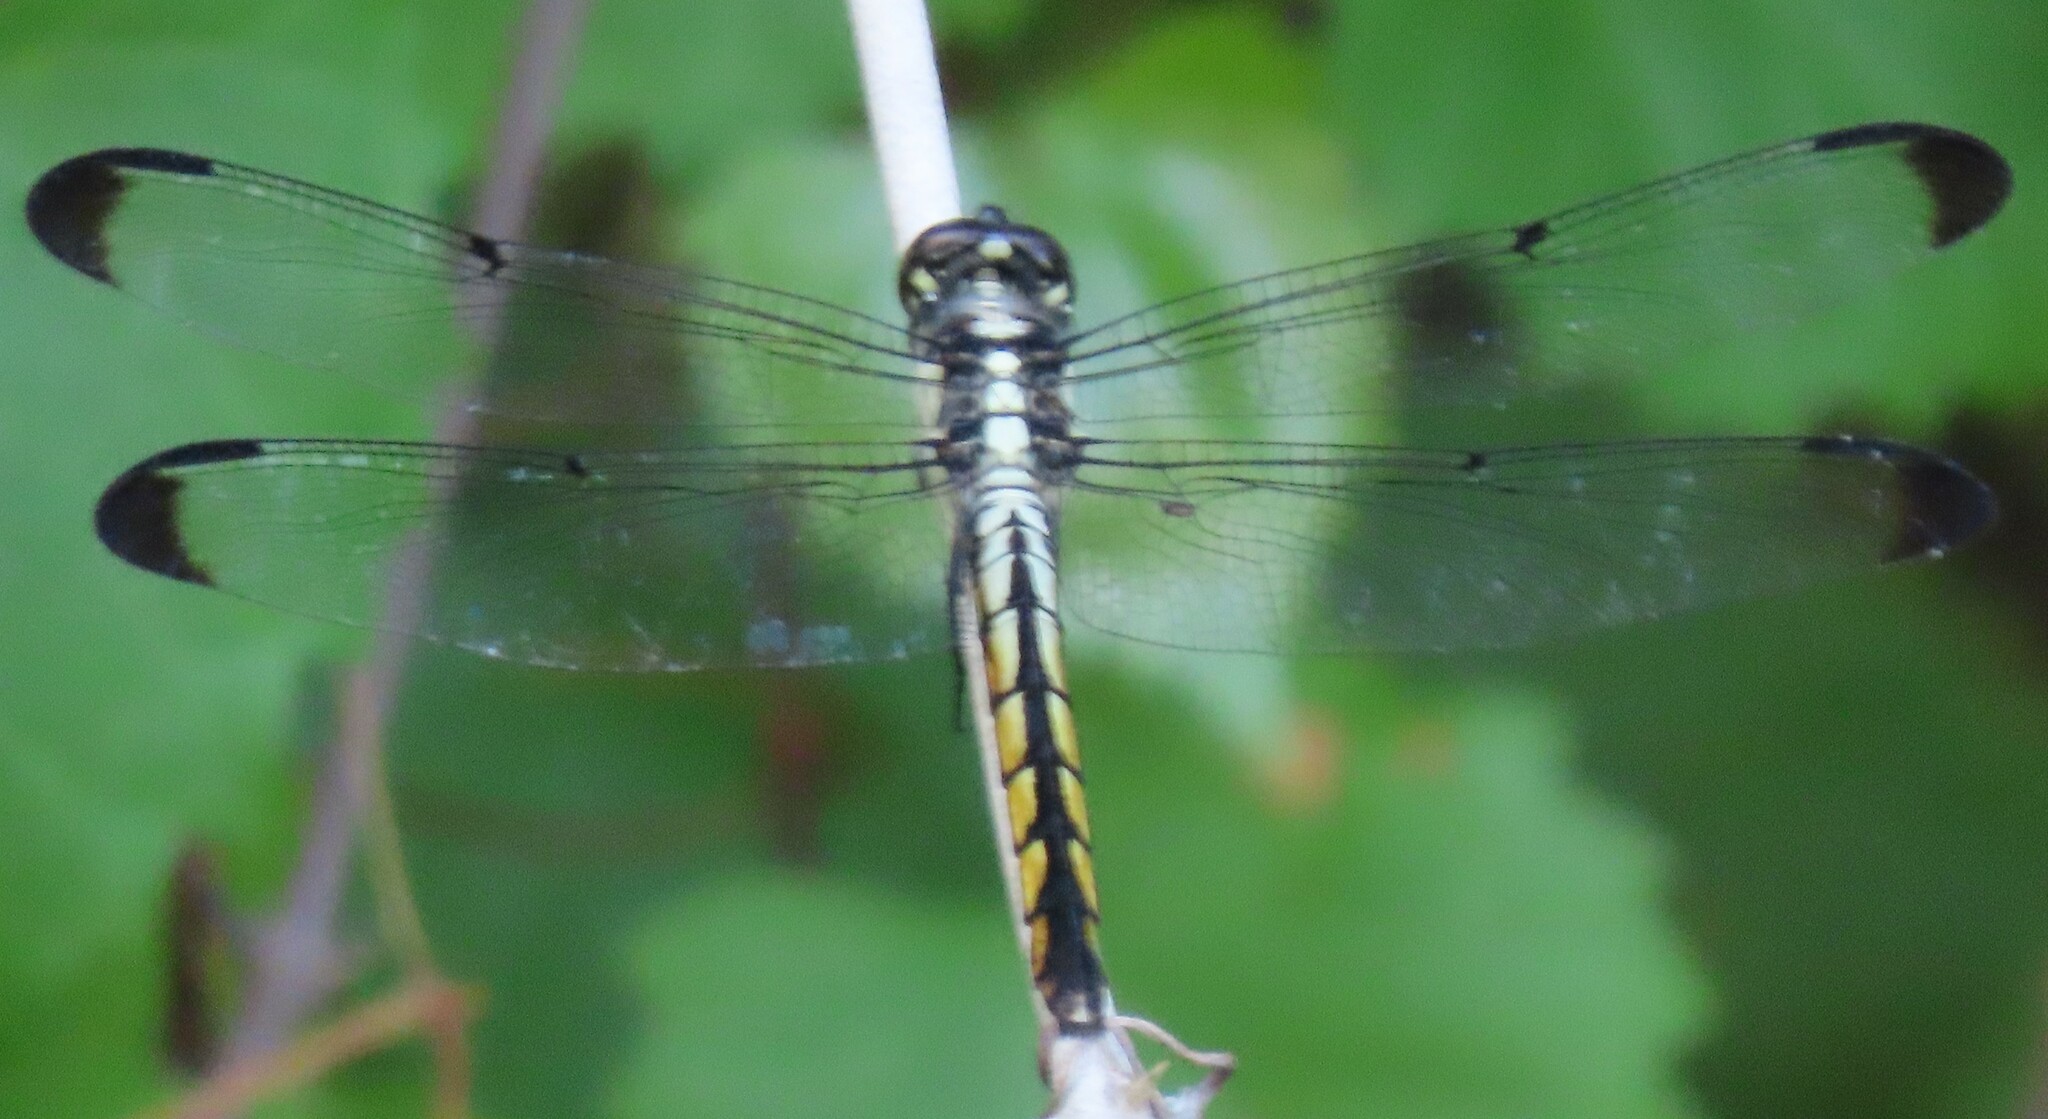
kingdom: Animalia
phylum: Arthropoda
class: Insecta
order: Odonata
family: Libellulidae
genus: Libellula
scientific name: Libellula vibrans
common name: Great blue skimmer
